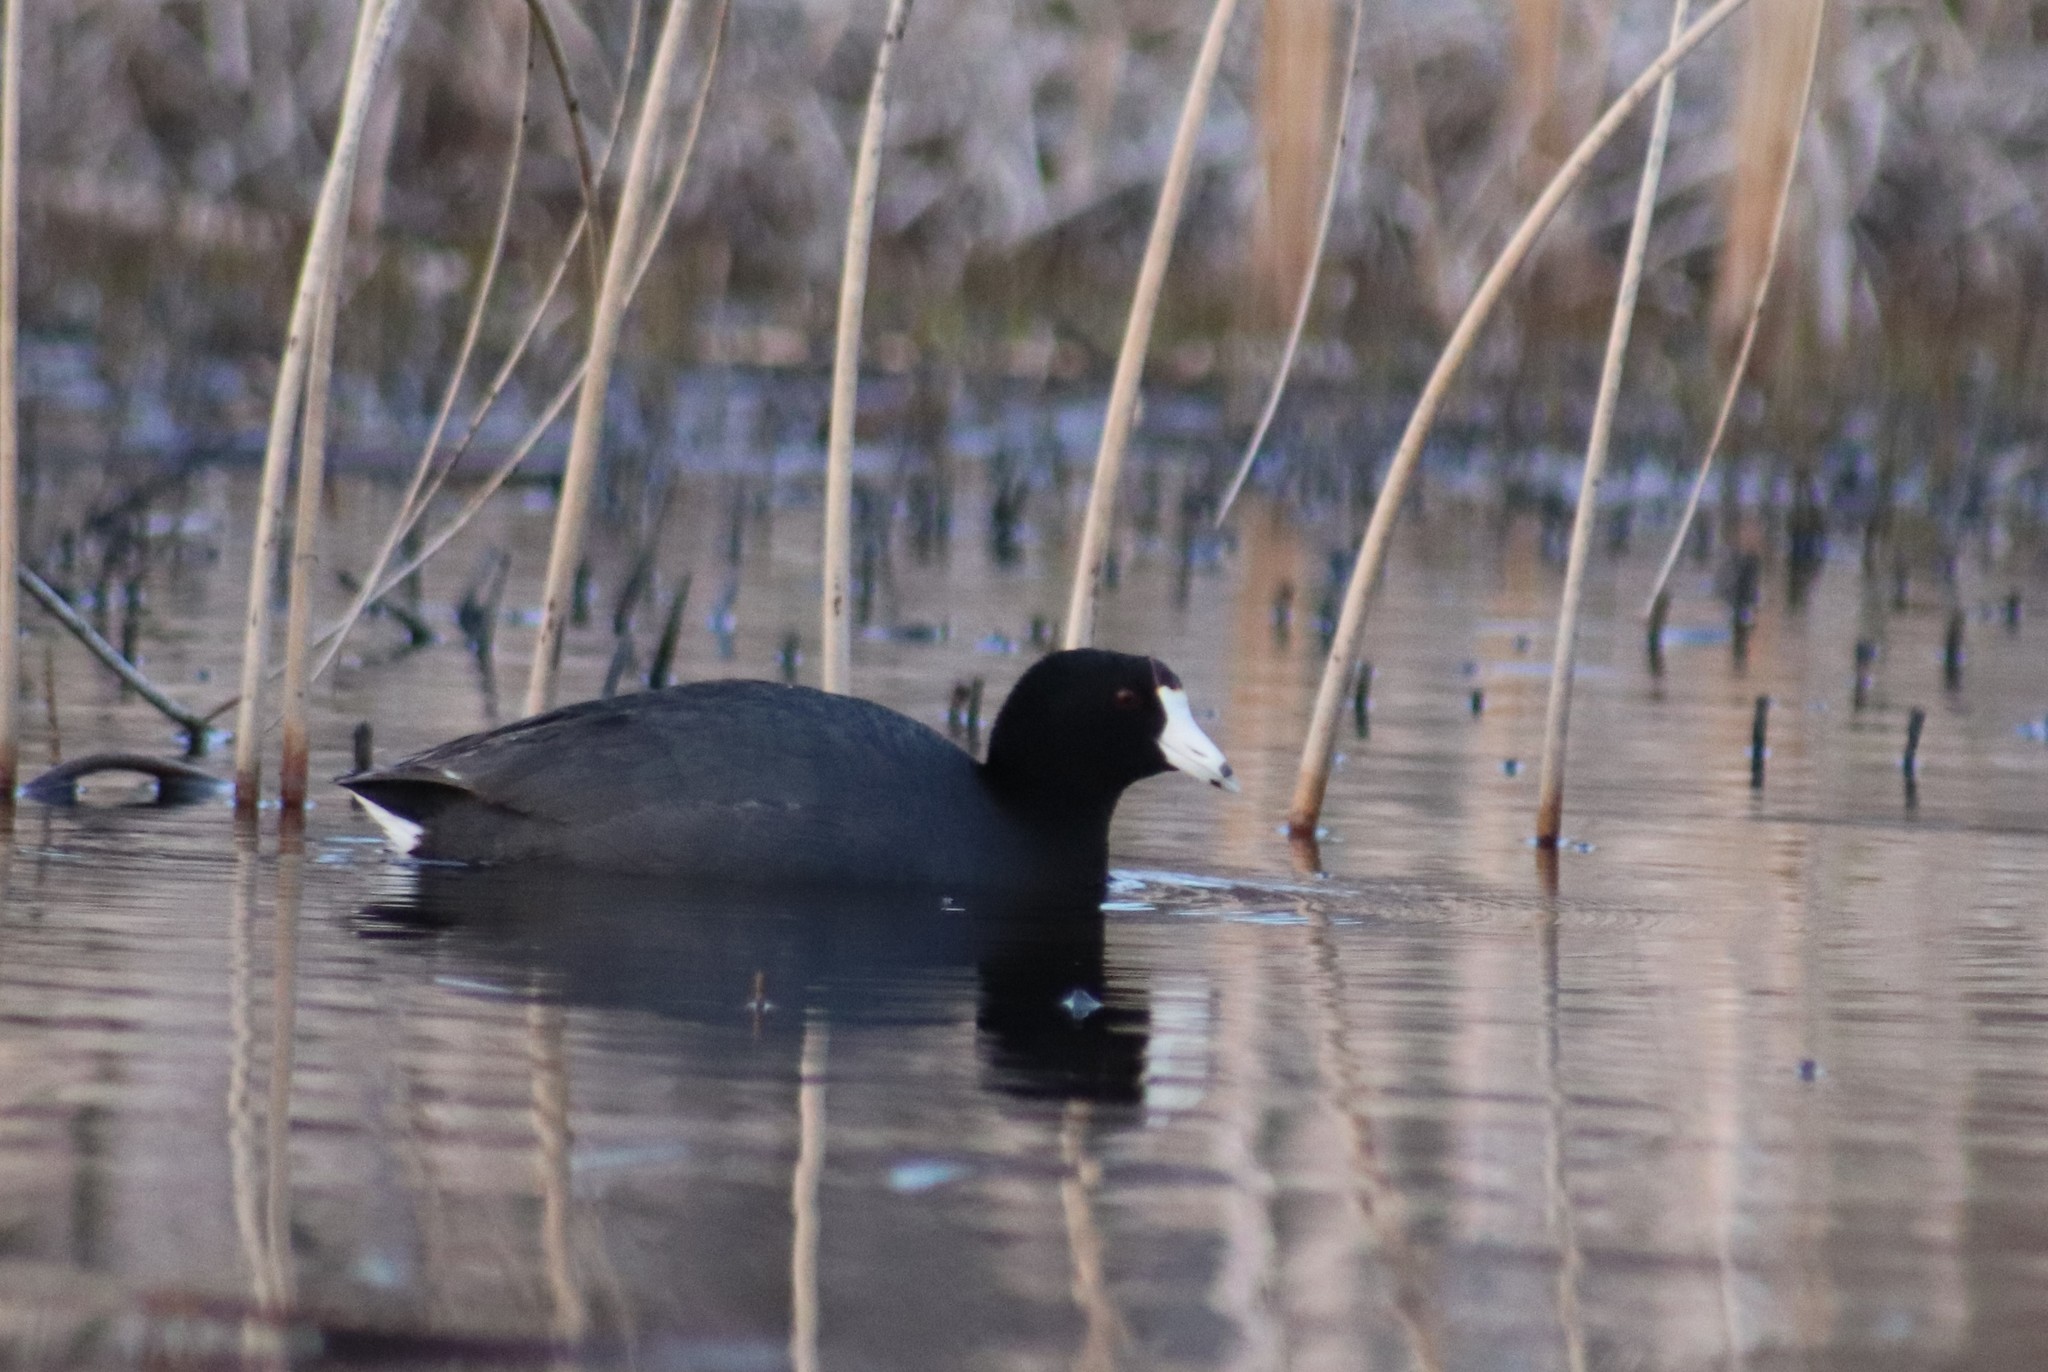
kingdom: Animalia
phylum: Chordata
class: Aves
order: Gruiformes
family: Rallidae
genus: Fulica
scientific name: Fulica americana
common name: American coot
